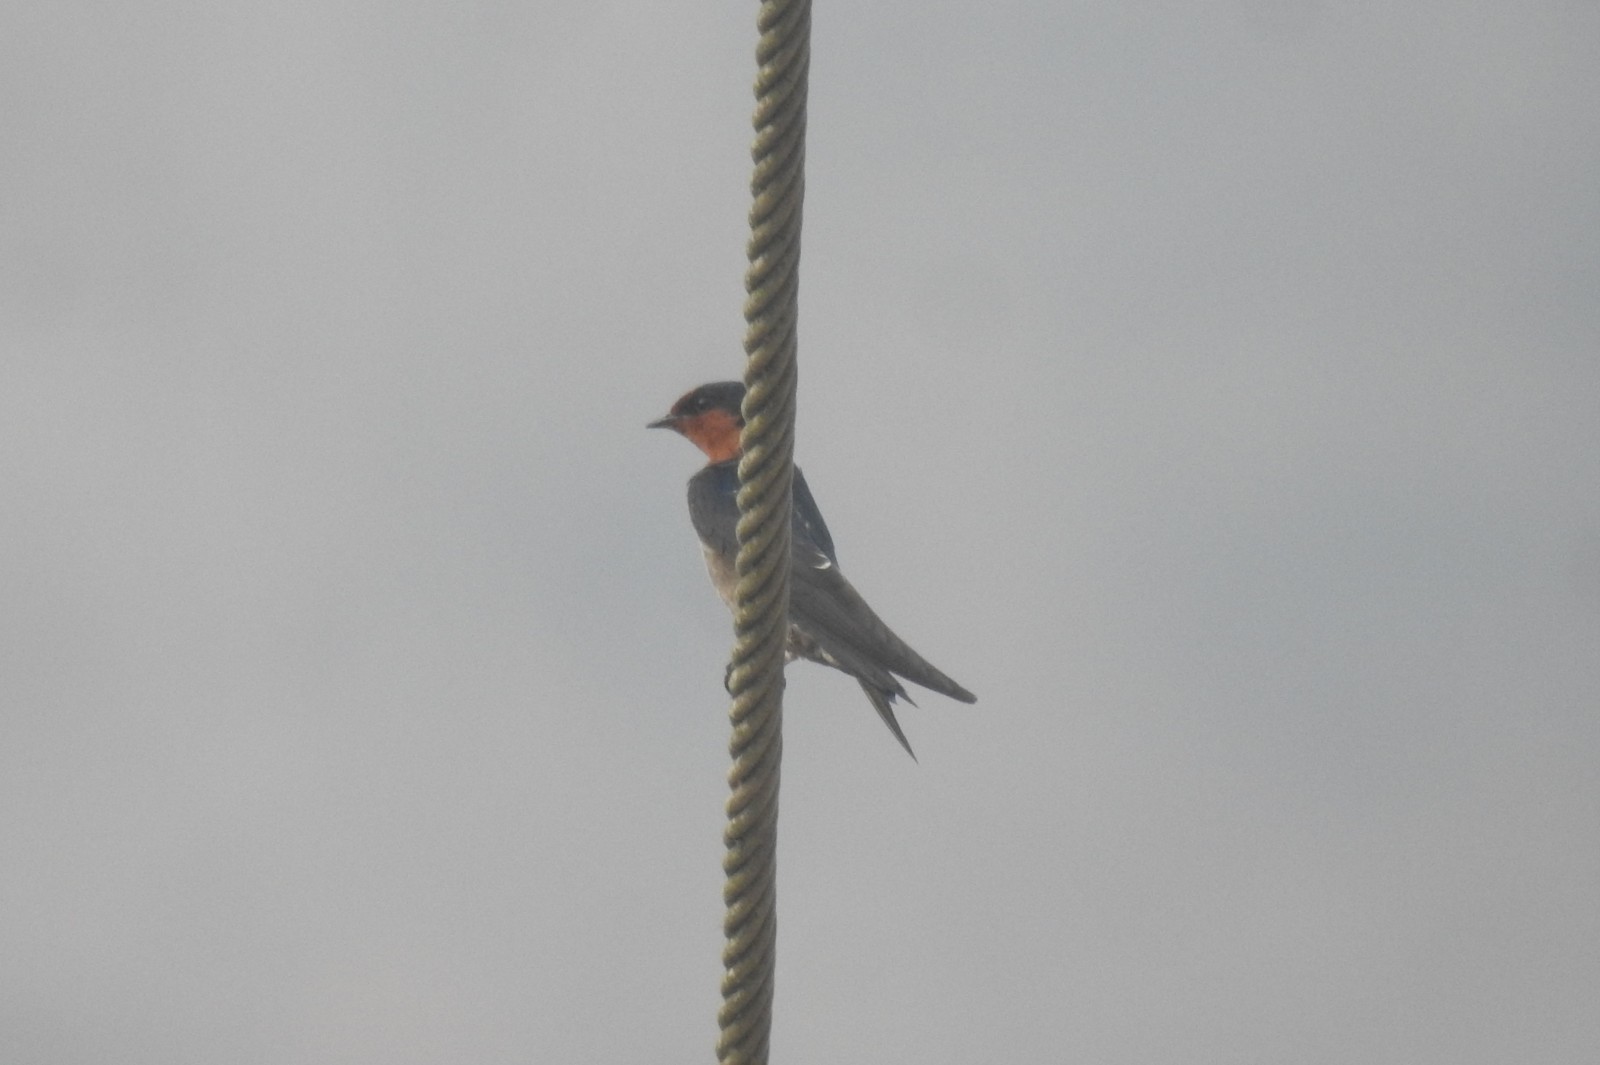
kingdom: Animalia
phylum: Chordata
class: Aves
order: Passeriformes
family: Hirundinidae
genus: Hirundo
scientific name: Hirundo rustica
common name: Barn swallow
